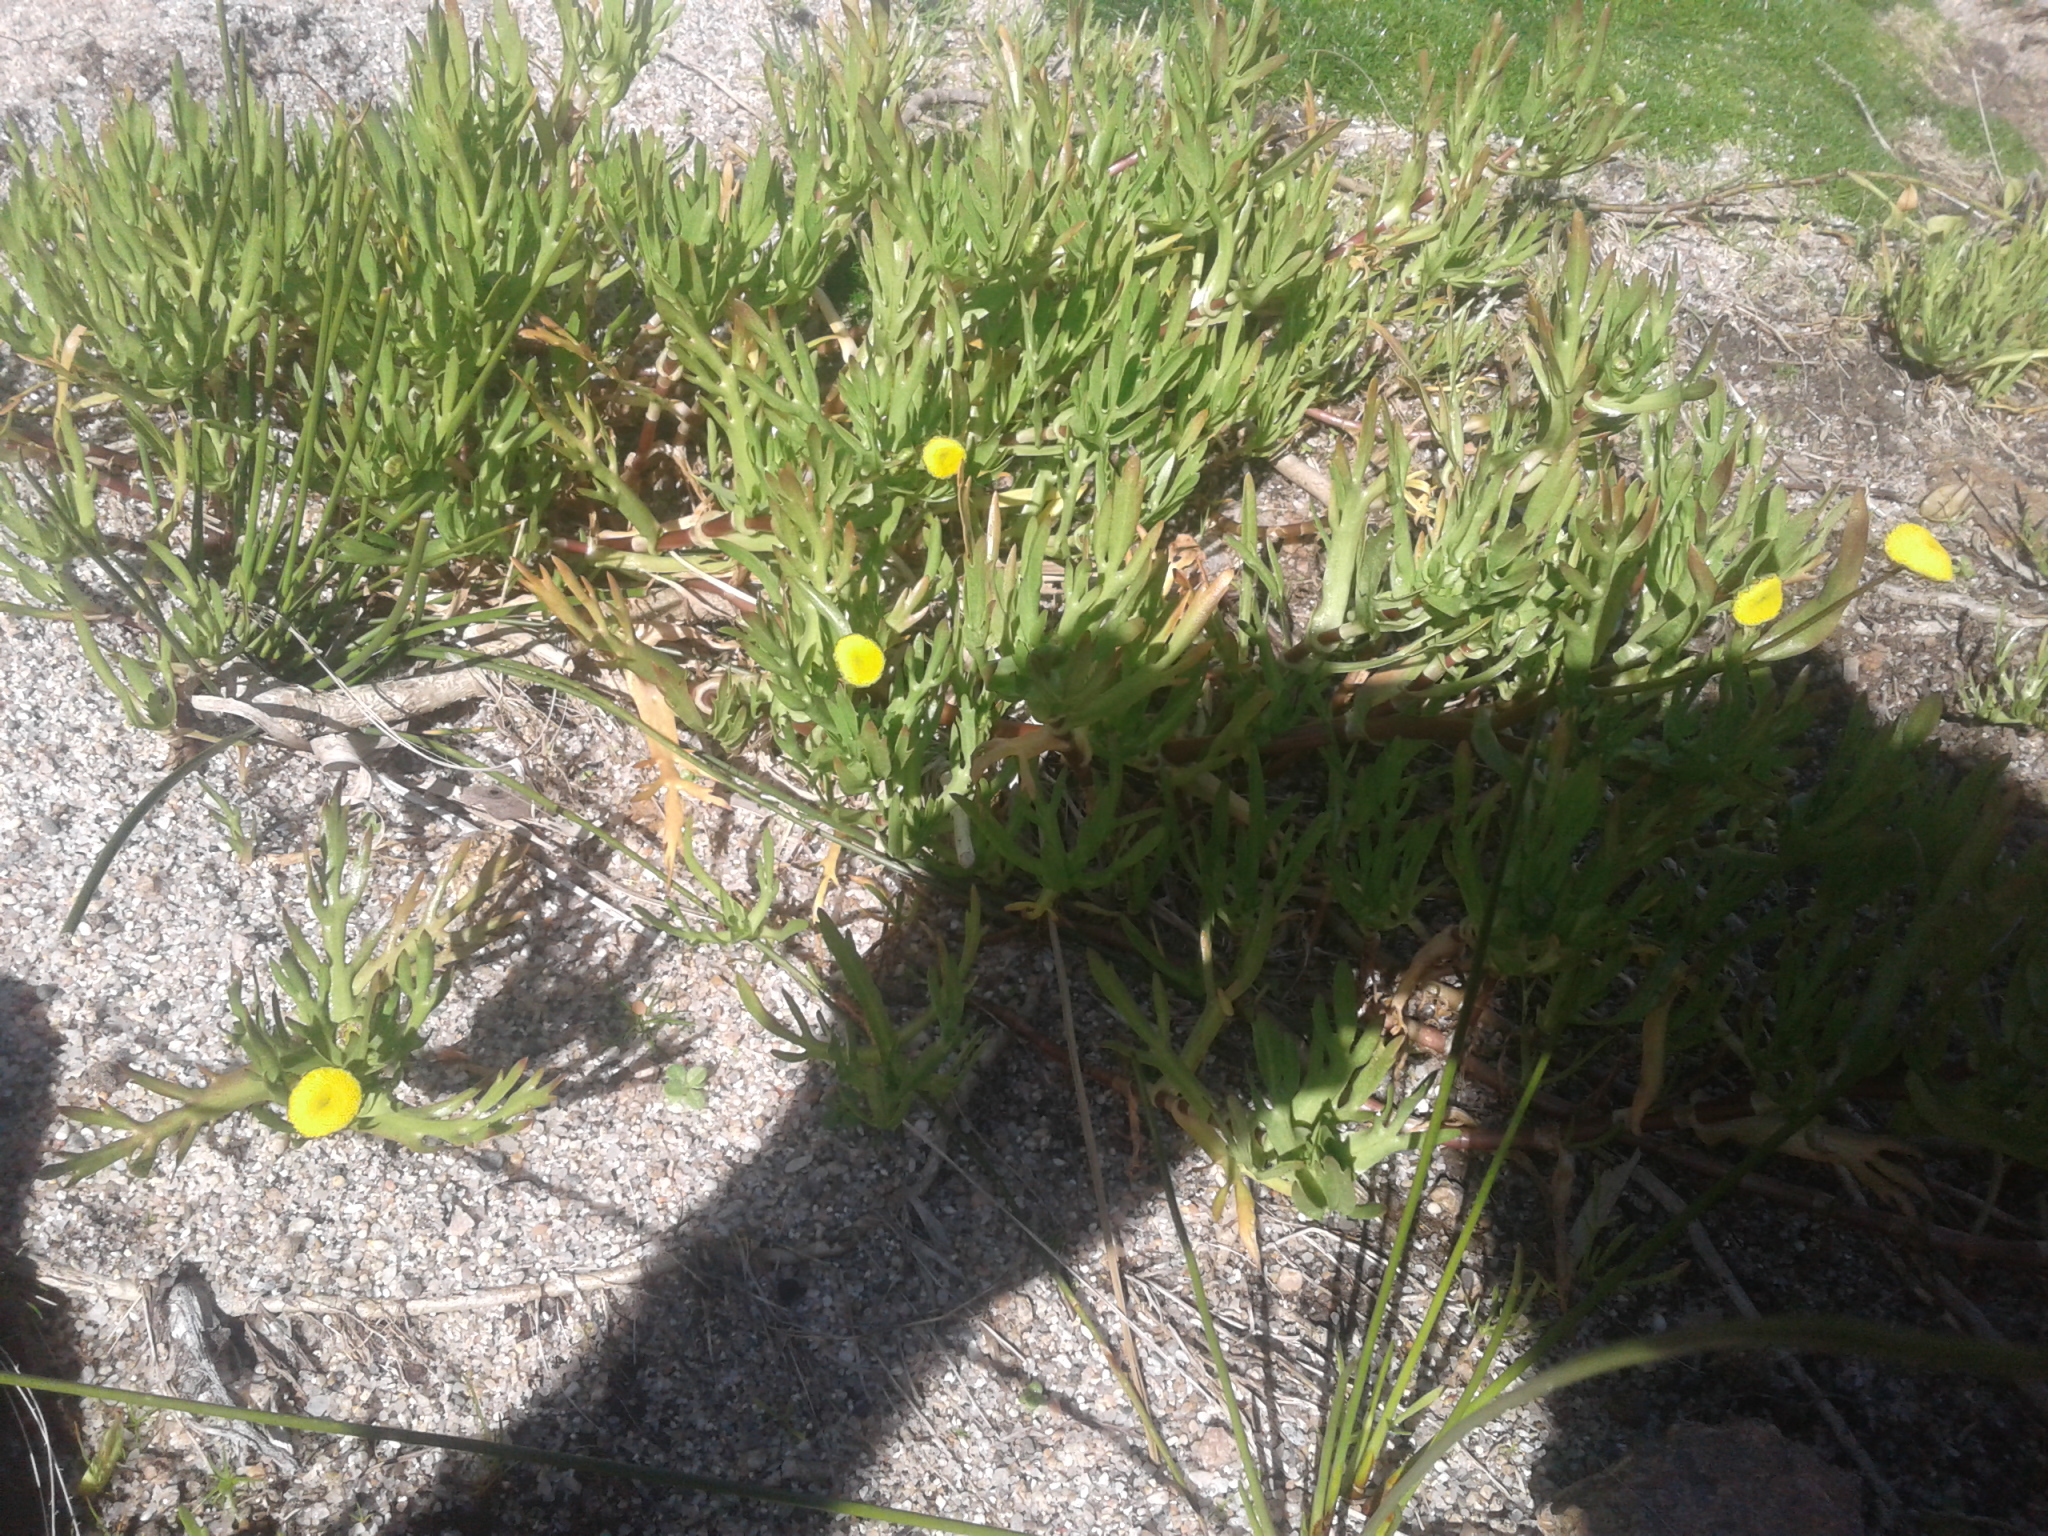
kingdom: Plantae
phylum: Tracheophyta
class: Magnoliopsida
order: Asterales
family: Asteraceae
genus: Cotula
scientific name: Cotula coronopifolia
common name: Buttonweed
